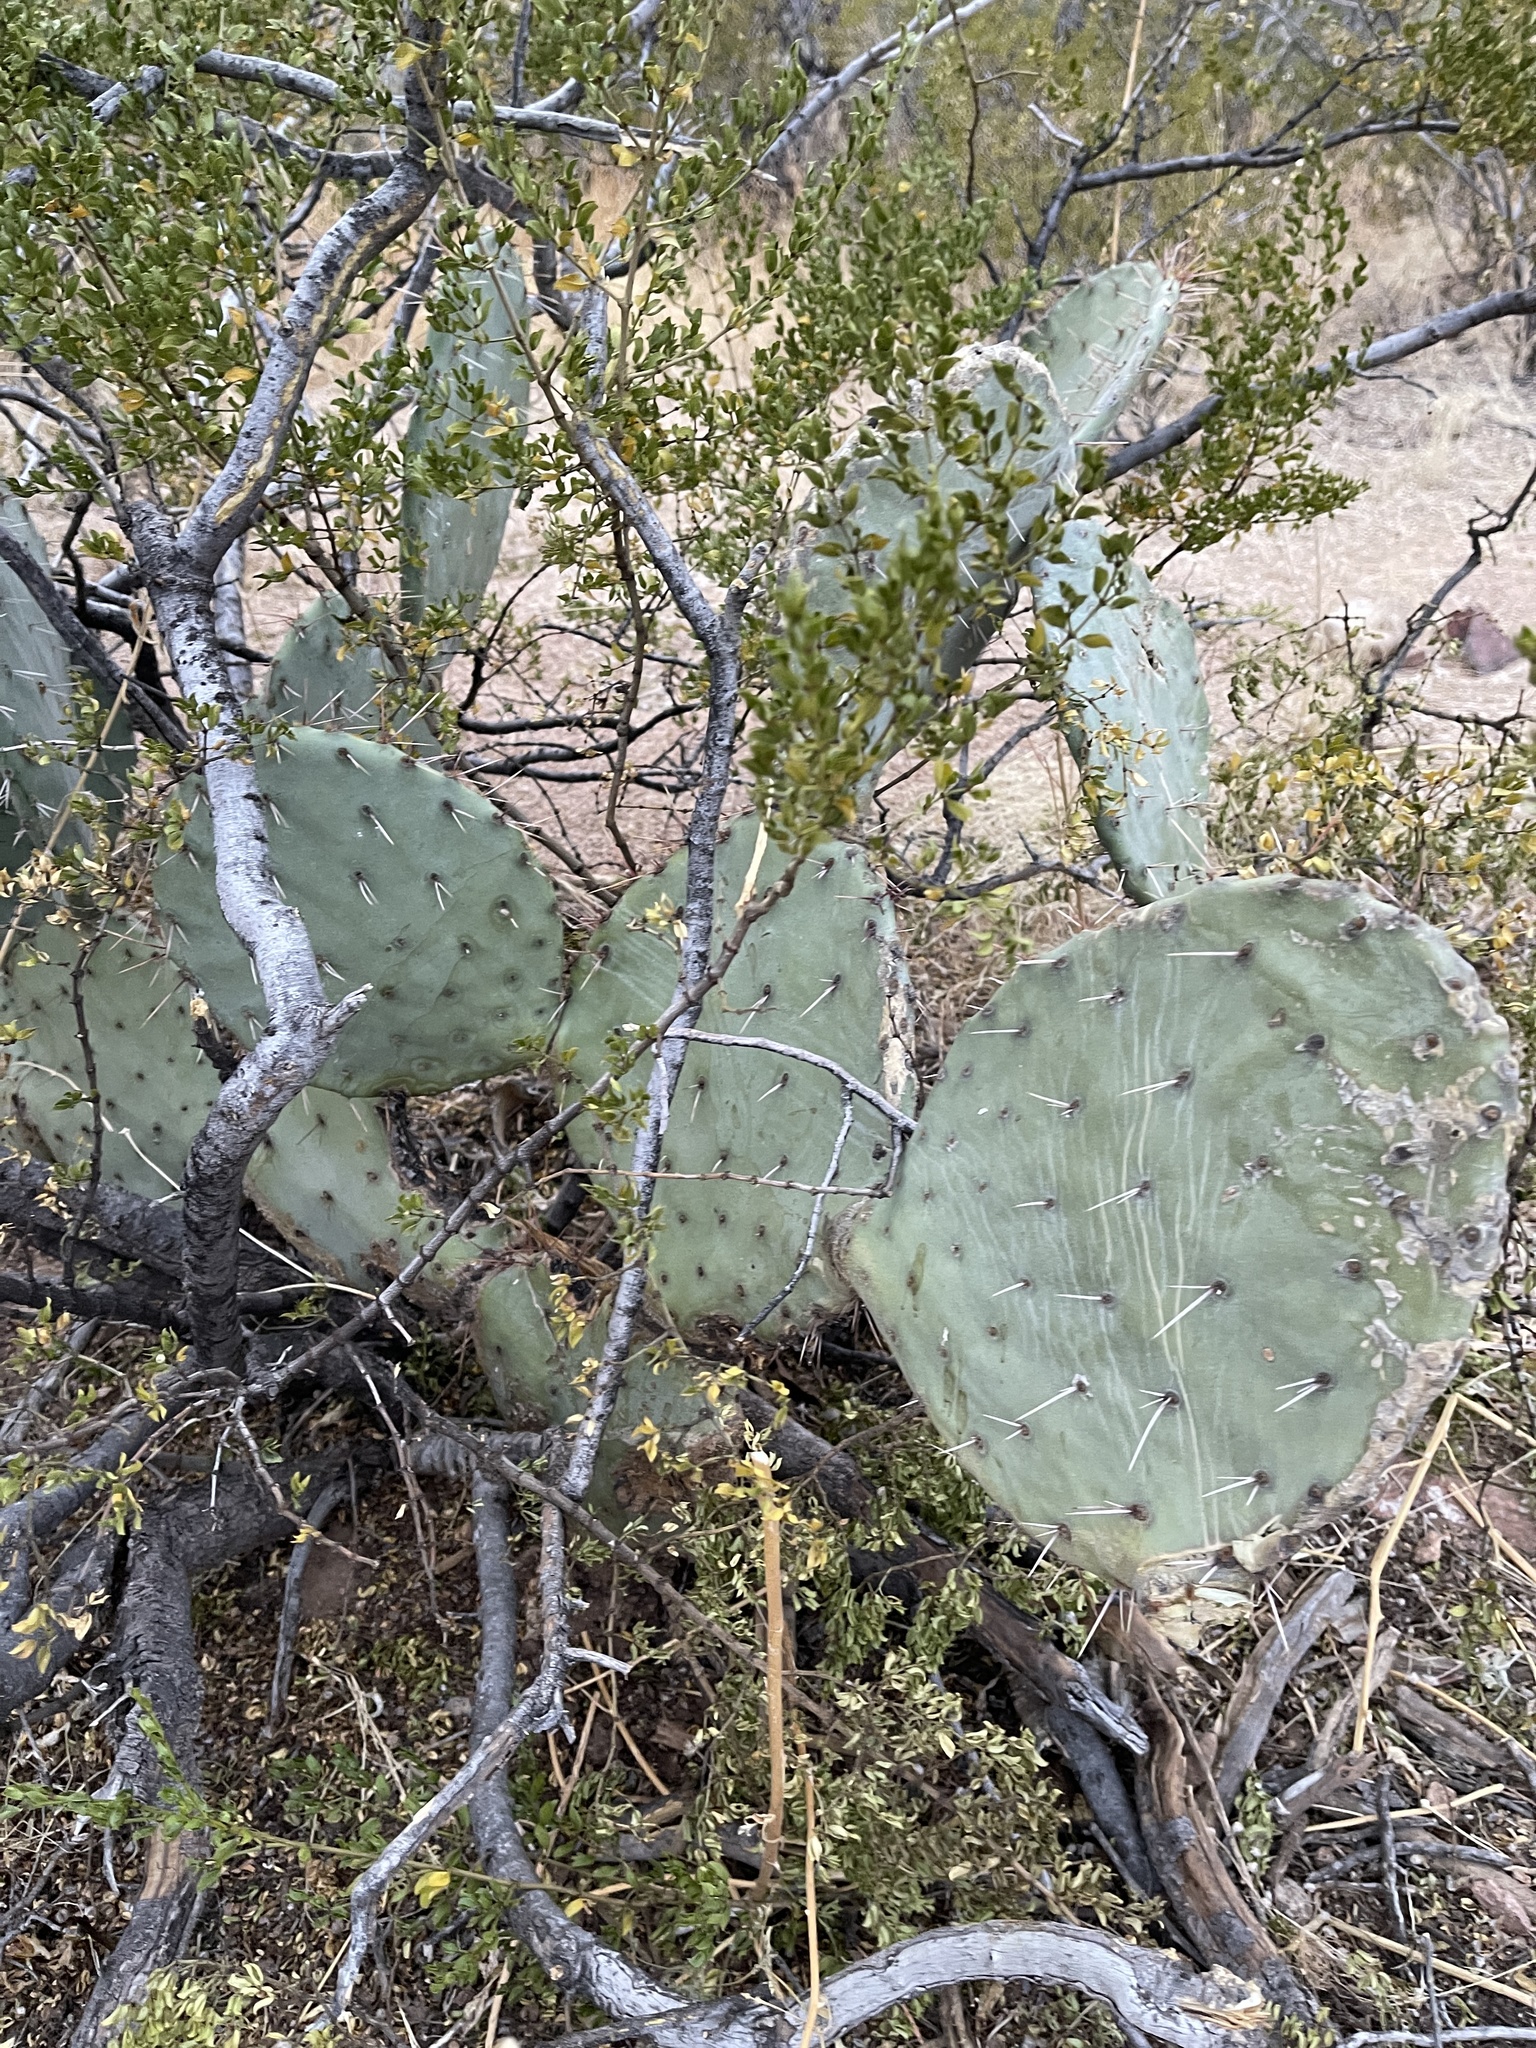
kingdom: Plantae
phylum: Tracheophyta
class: Magnoliopsida
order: Caryophyllales
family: Cactaceae
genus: Opuntia
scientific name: Opuntia macrocentra
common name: Purple prickly-pear
